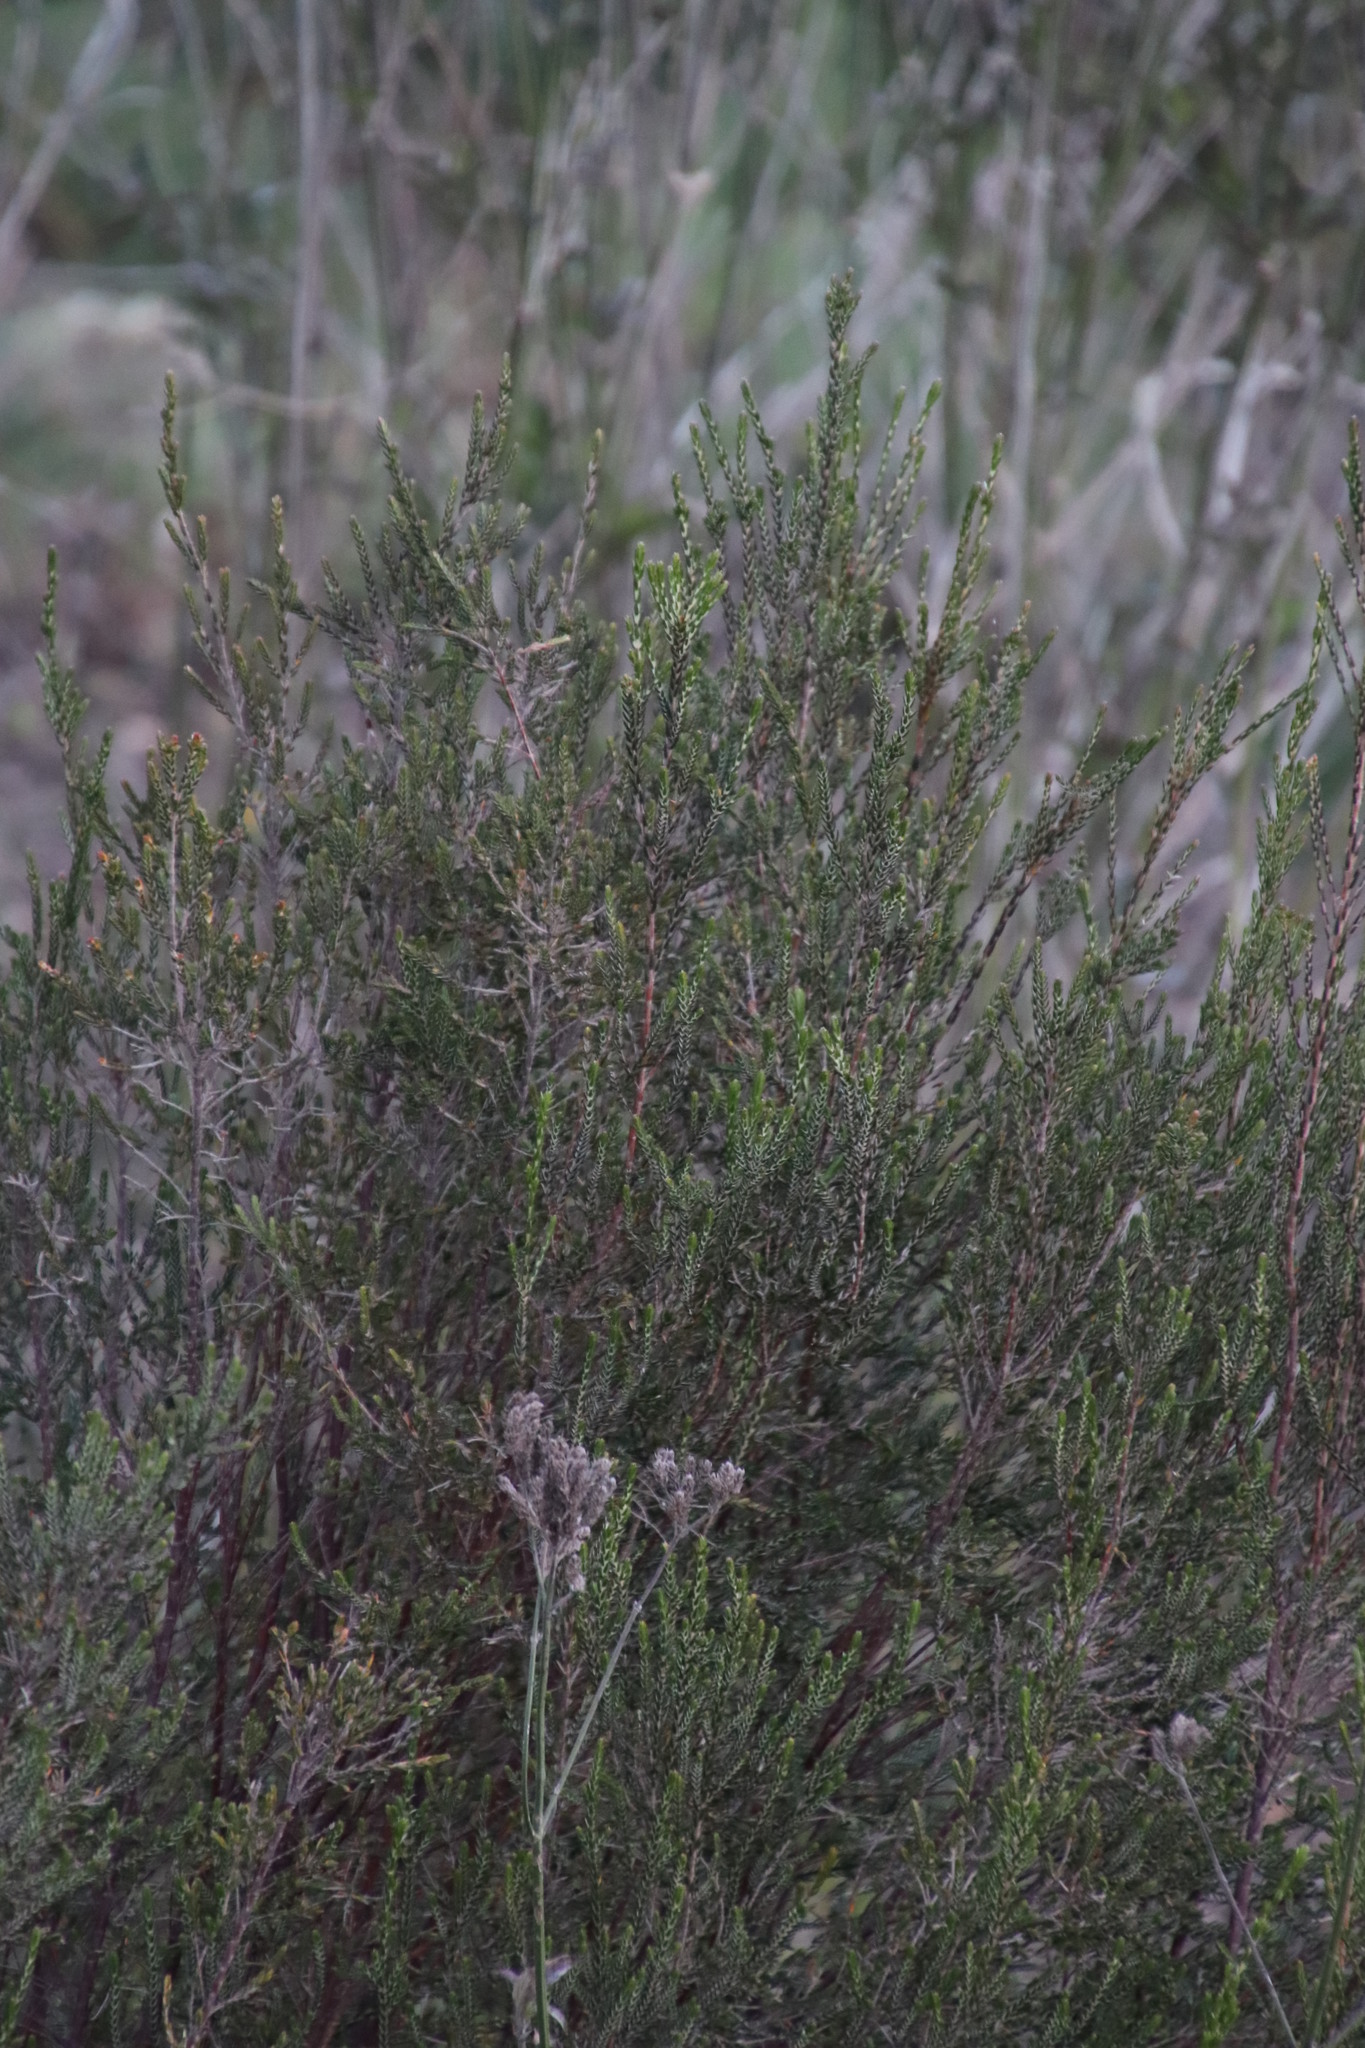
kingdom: Plantae
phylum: Tracheophyta
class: Magnoliopsida
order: Malvales
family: Thymelaeaceae
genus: Passerina
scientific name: Passerina corymbosa
